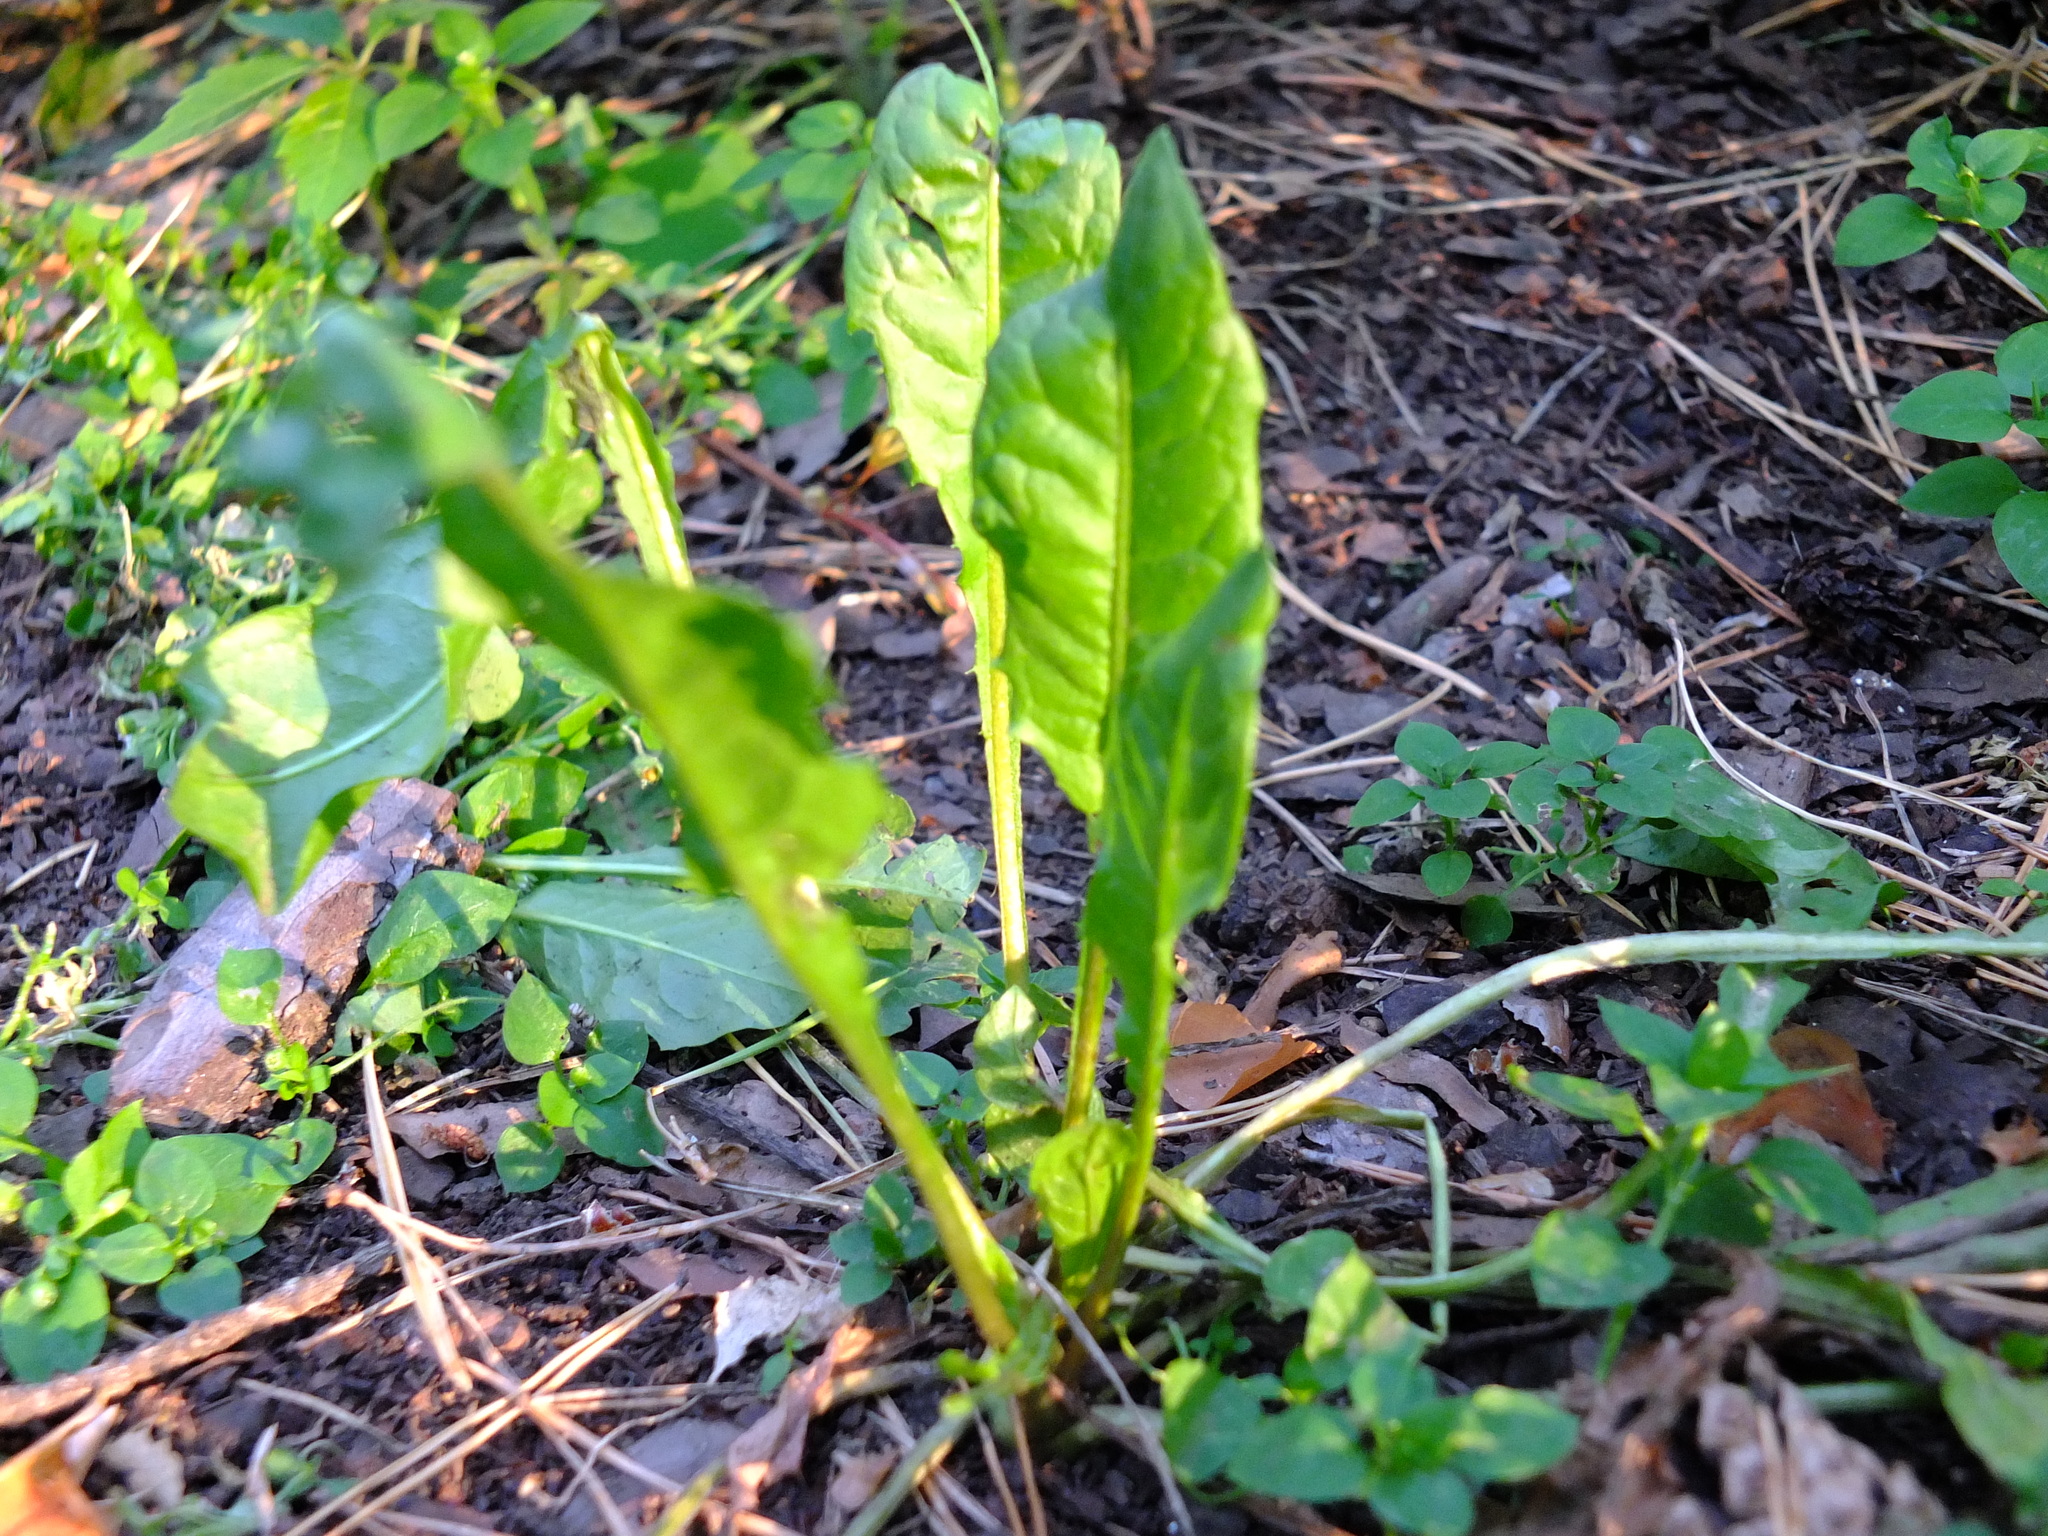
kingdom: Plantae
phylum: Tracheophyta
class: Magnoliopsida
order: Asterales
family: Asteraceae
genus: Taraxacum
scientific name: Taraxacum officinale
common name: Common dandelion
